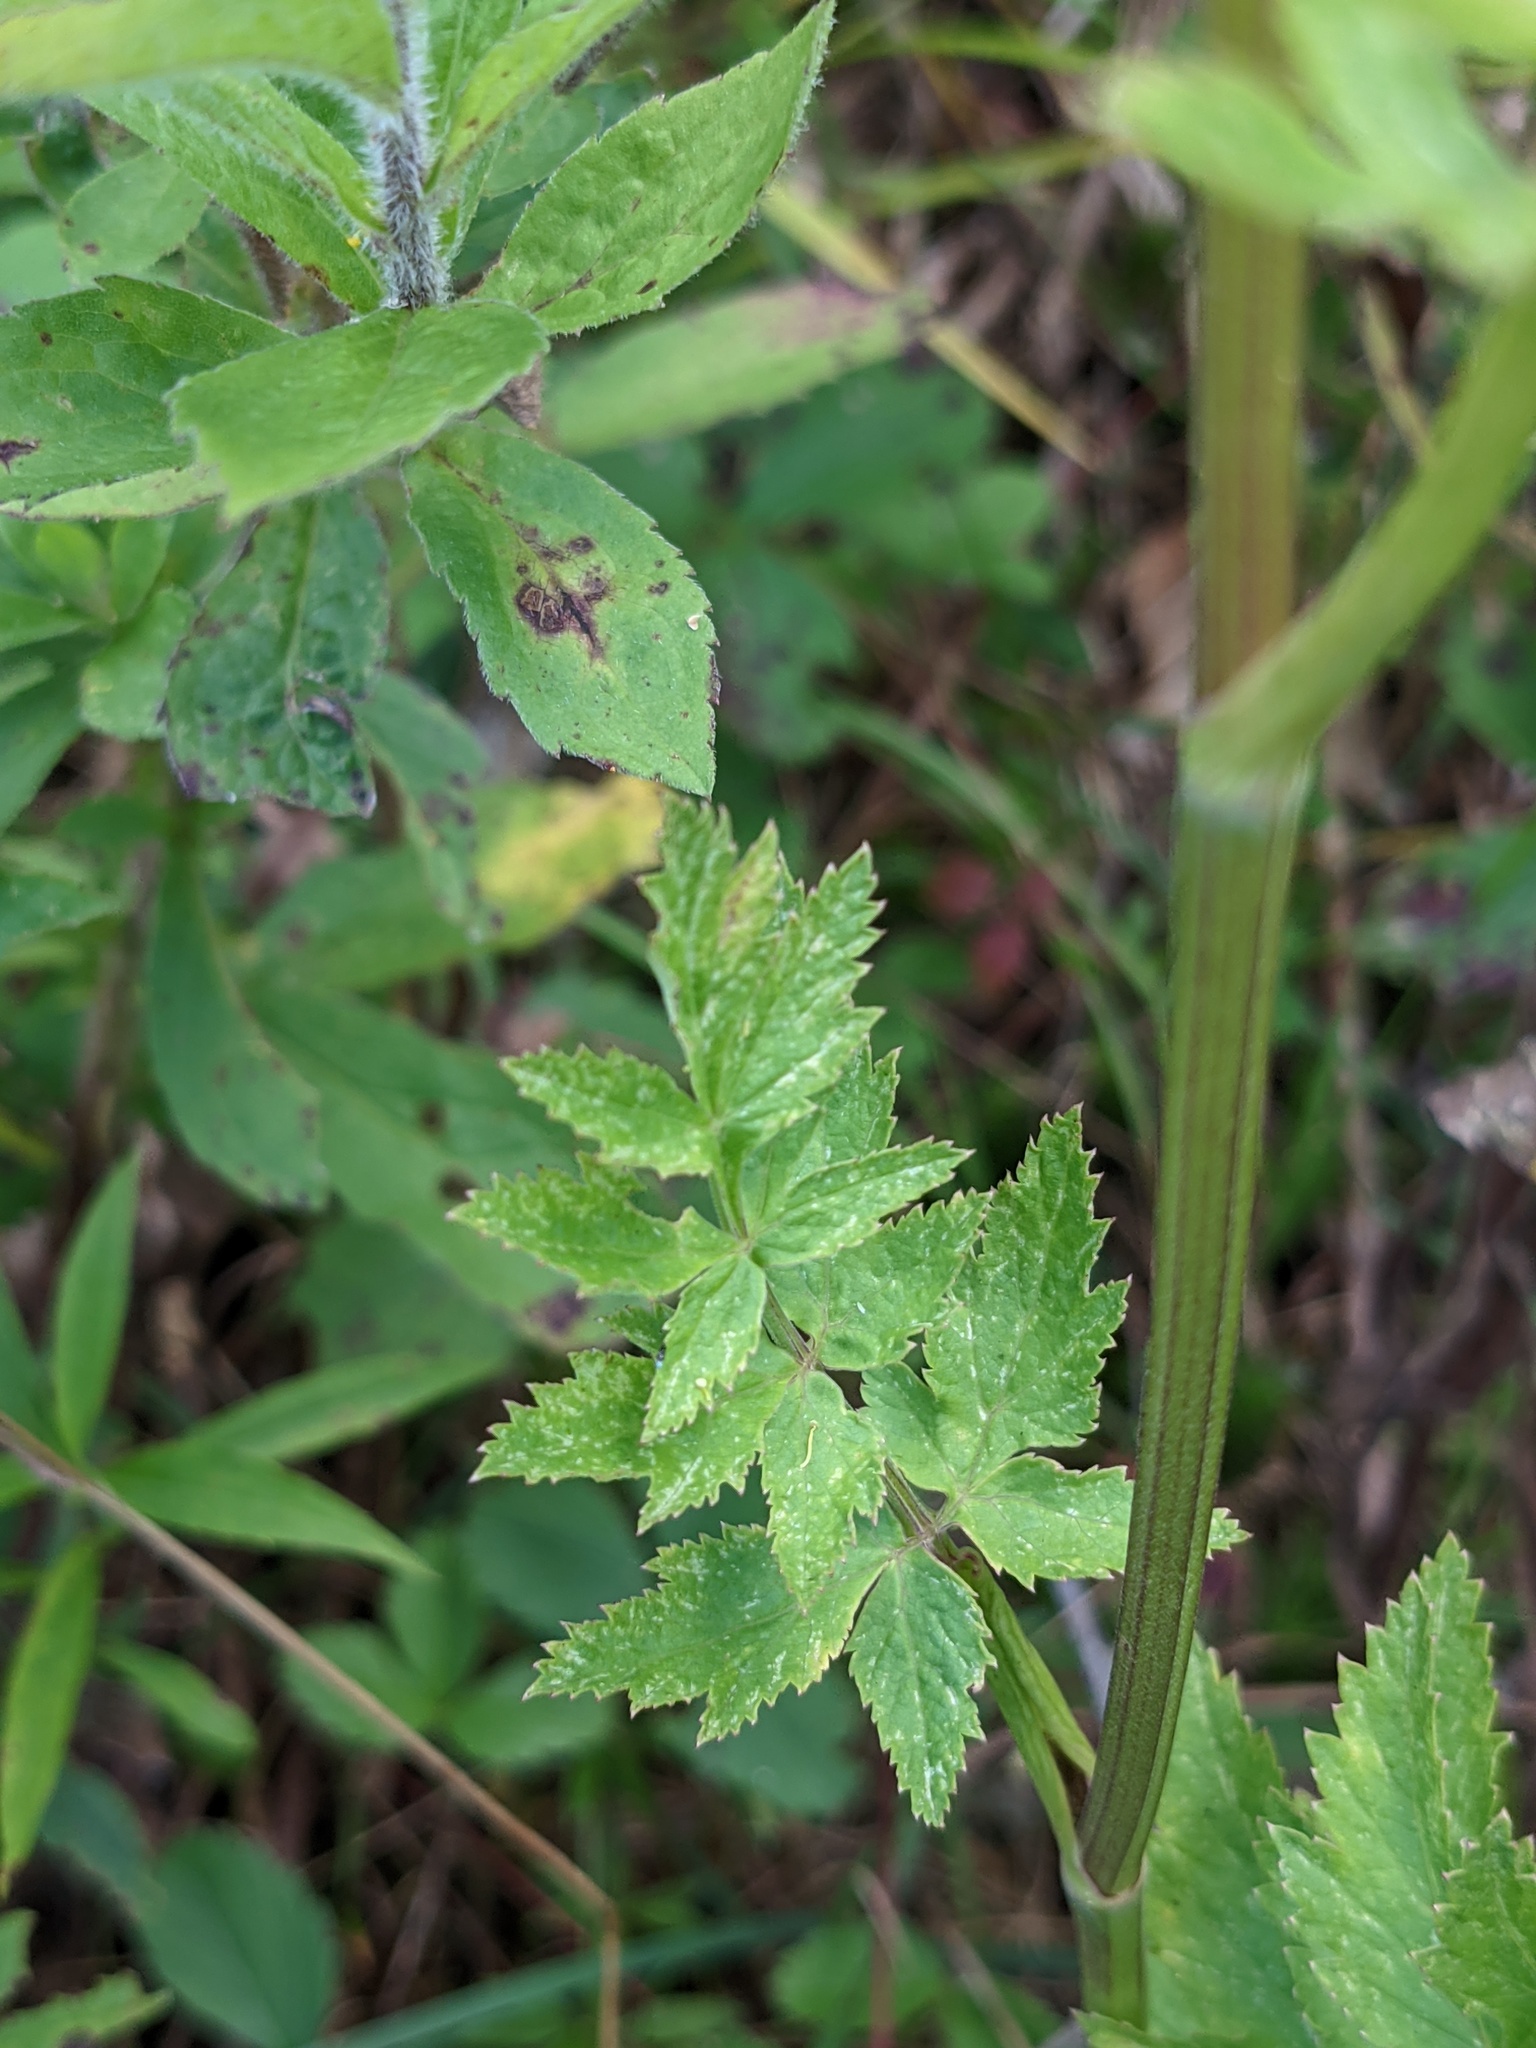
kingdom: Plantae
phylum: Tracheophyta
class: Magnoliopsida
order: Apiales
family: Apiaceae
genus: Pastinaca
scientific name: Pastinaca sativa
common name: Wild parsnip
